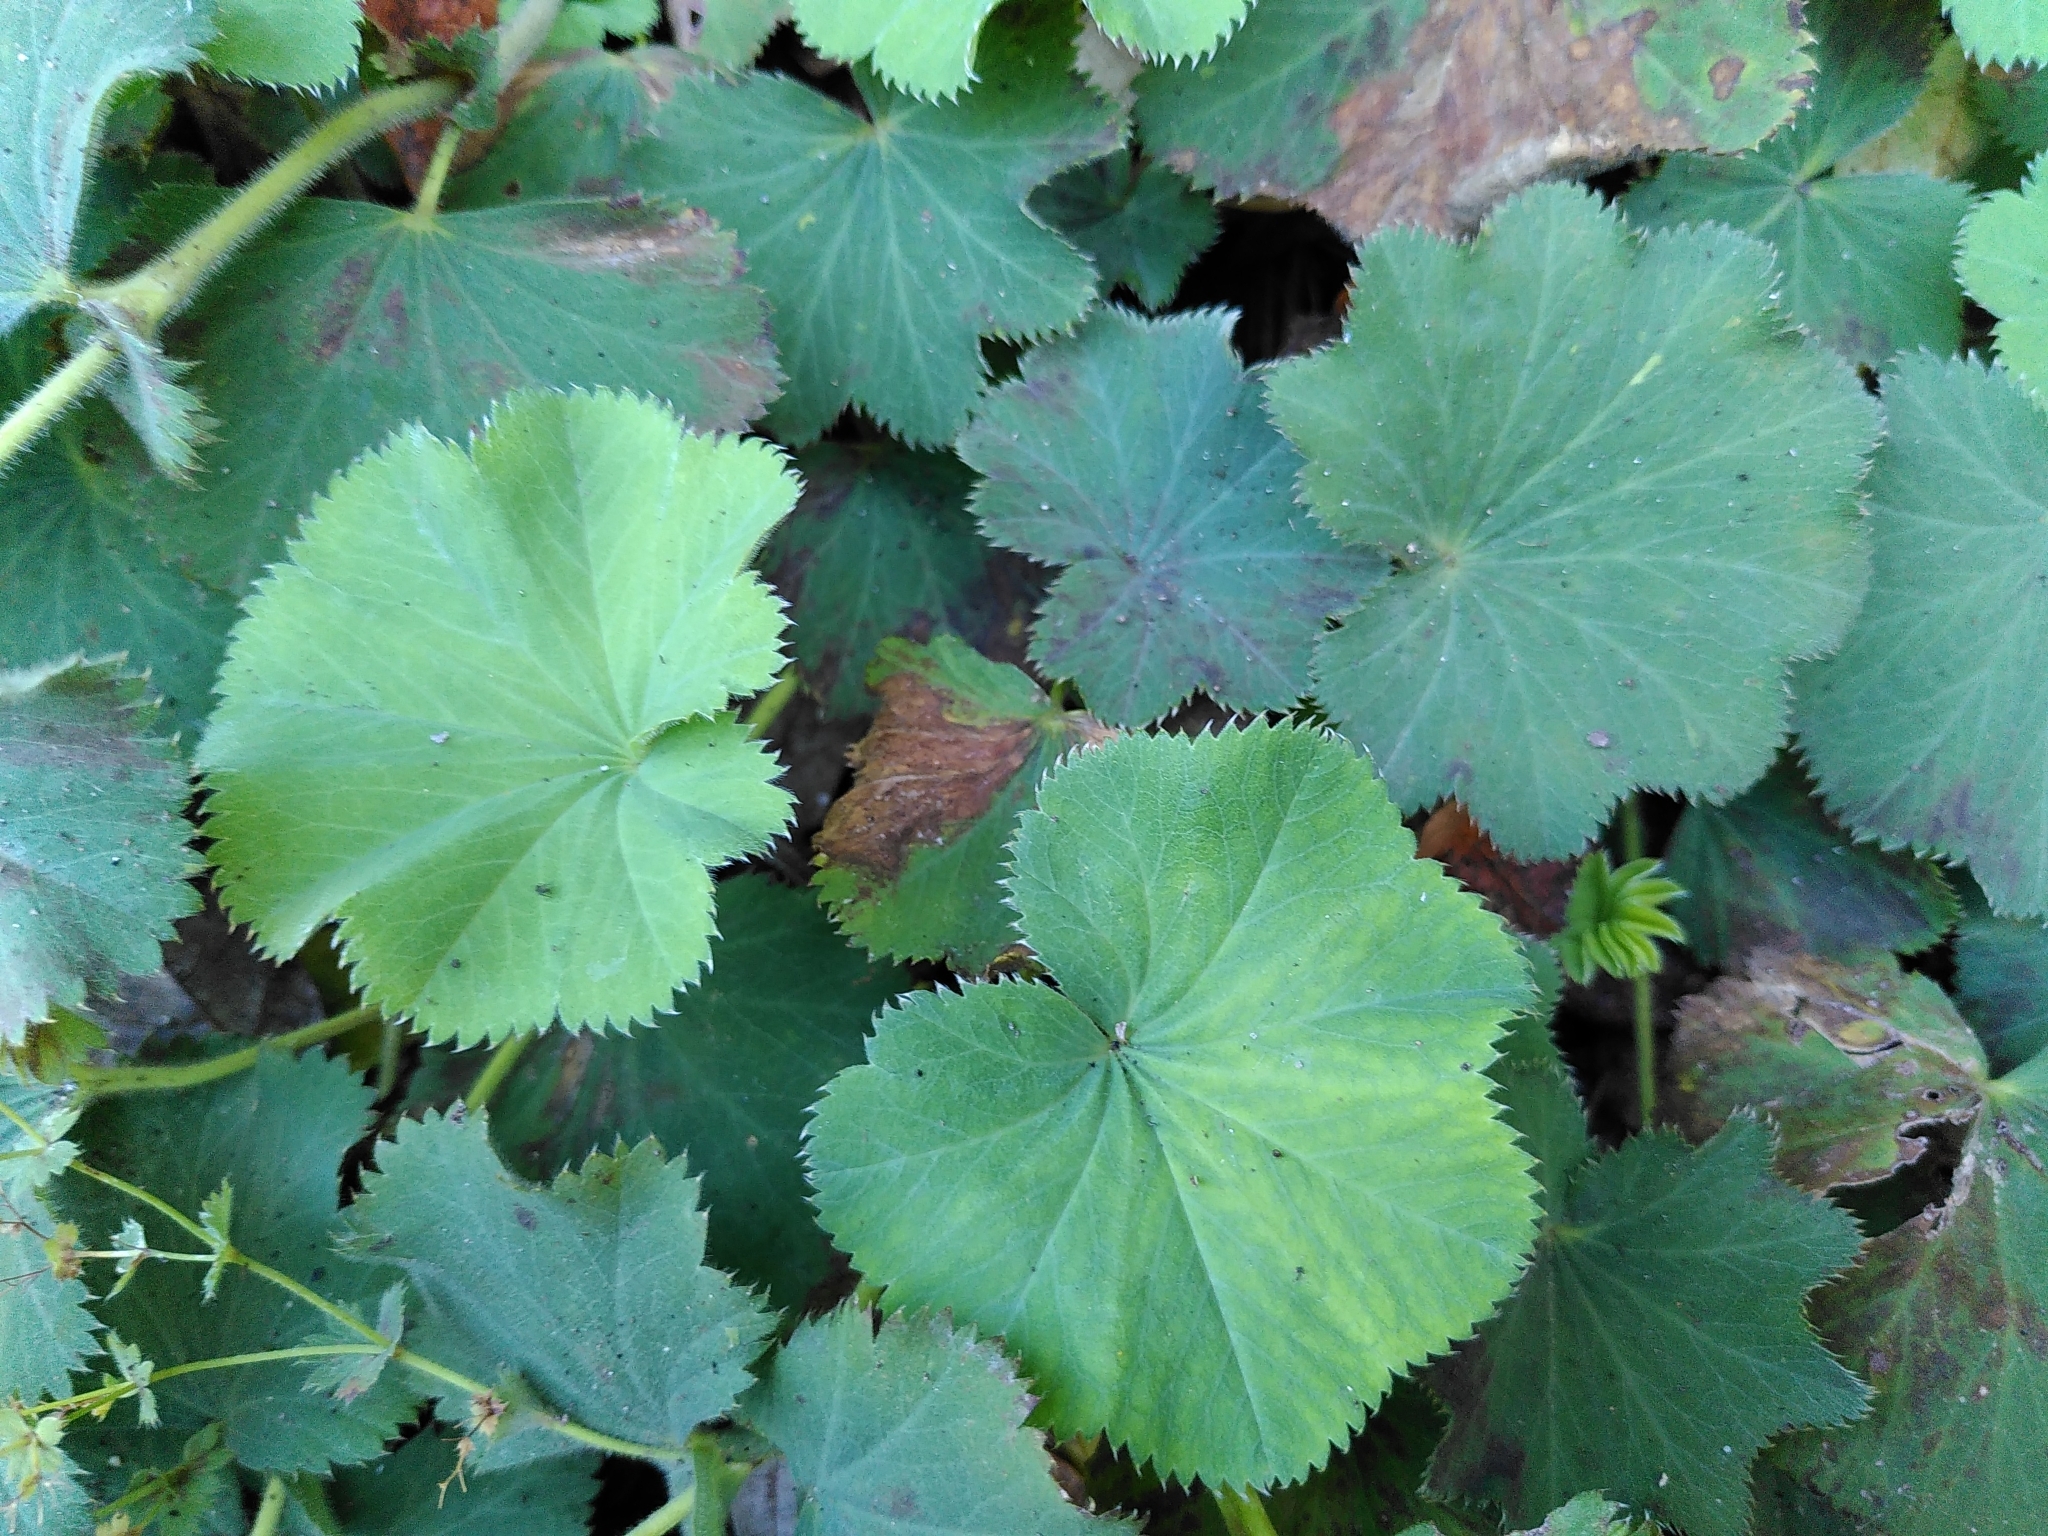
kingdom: Plantae
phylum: Tracheophyta
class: Magnoliopsida
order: Rosales
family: Rosaceae
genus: Alchemilla
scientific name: Alchemilla mollis
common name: Lady's-mantle
